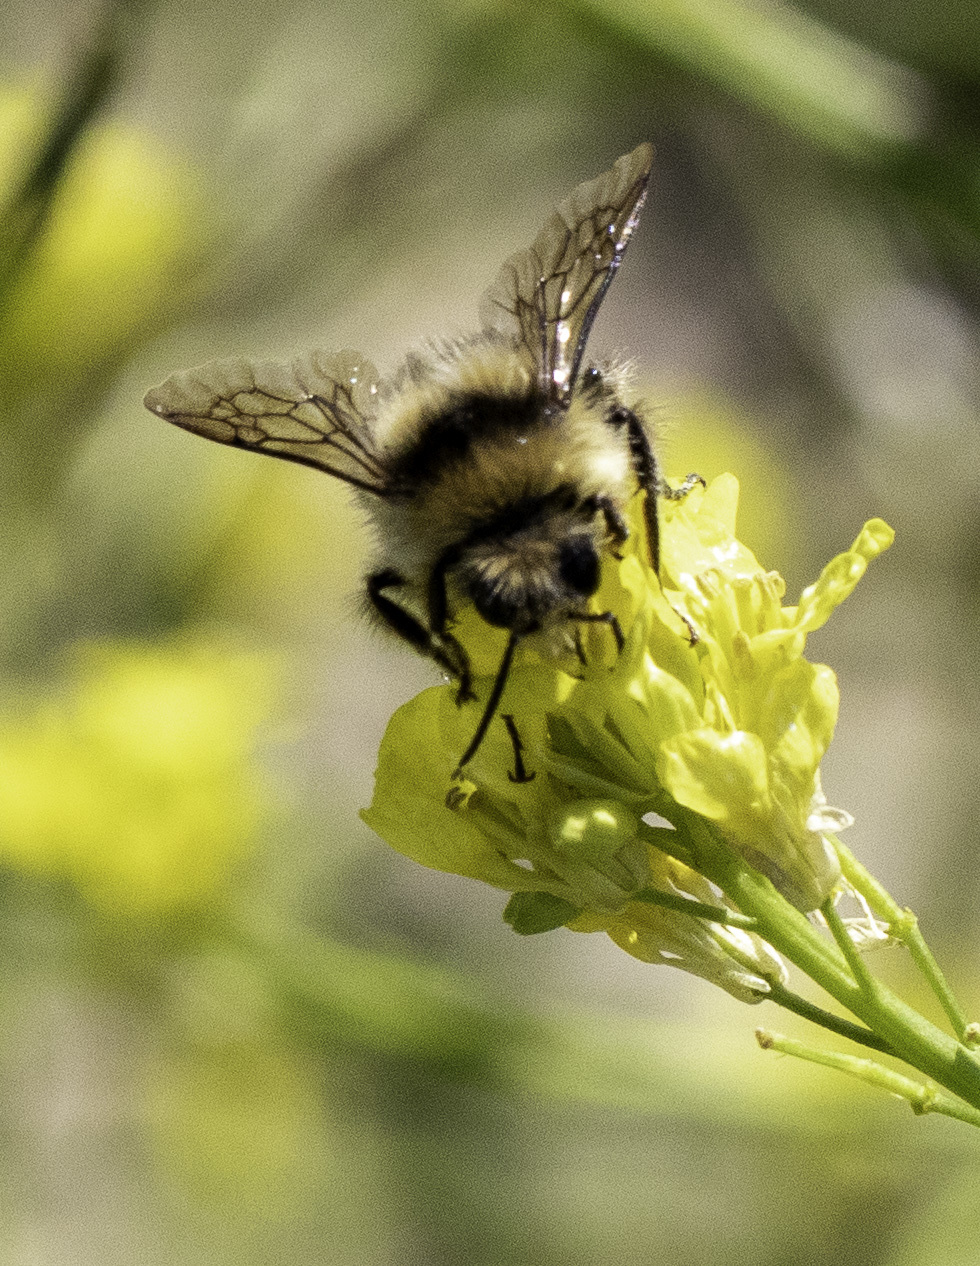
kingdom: Animalia
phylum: Arthropoda
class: Insecta
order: Hymenoptera
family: Apidae
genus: Bombus
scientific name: Bombus melanopygus
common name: Black tail bumble bee
